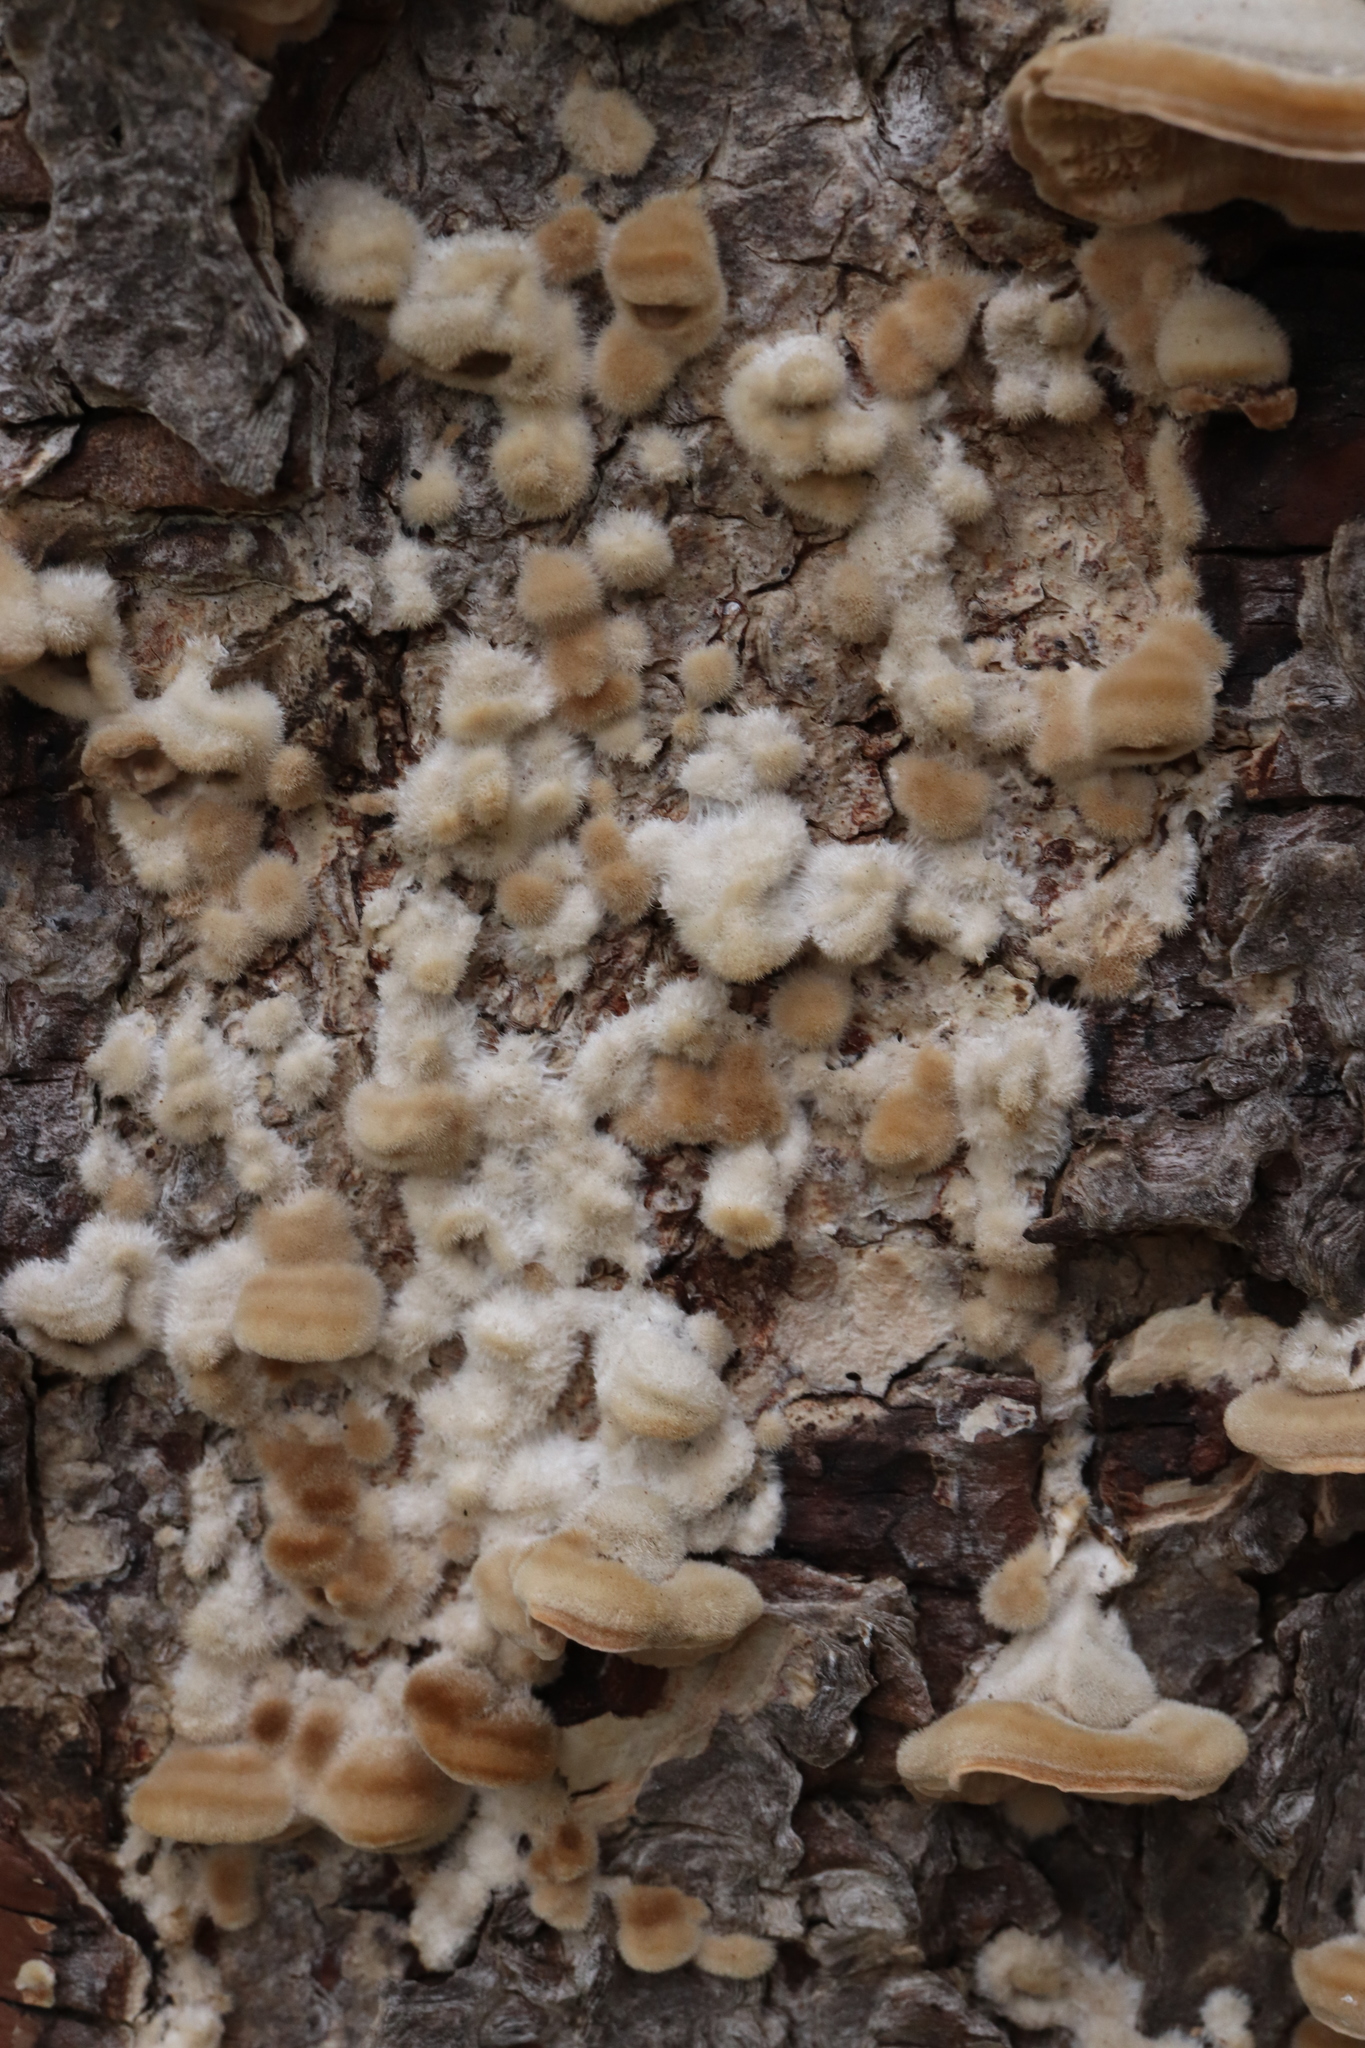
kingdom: Fungi
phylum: Basidiomycota
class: Agaricomycetes
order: Polyporales
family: Polyporaceae
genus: Trametes
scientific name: Trametes hirsuta
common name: Hairy bracket
